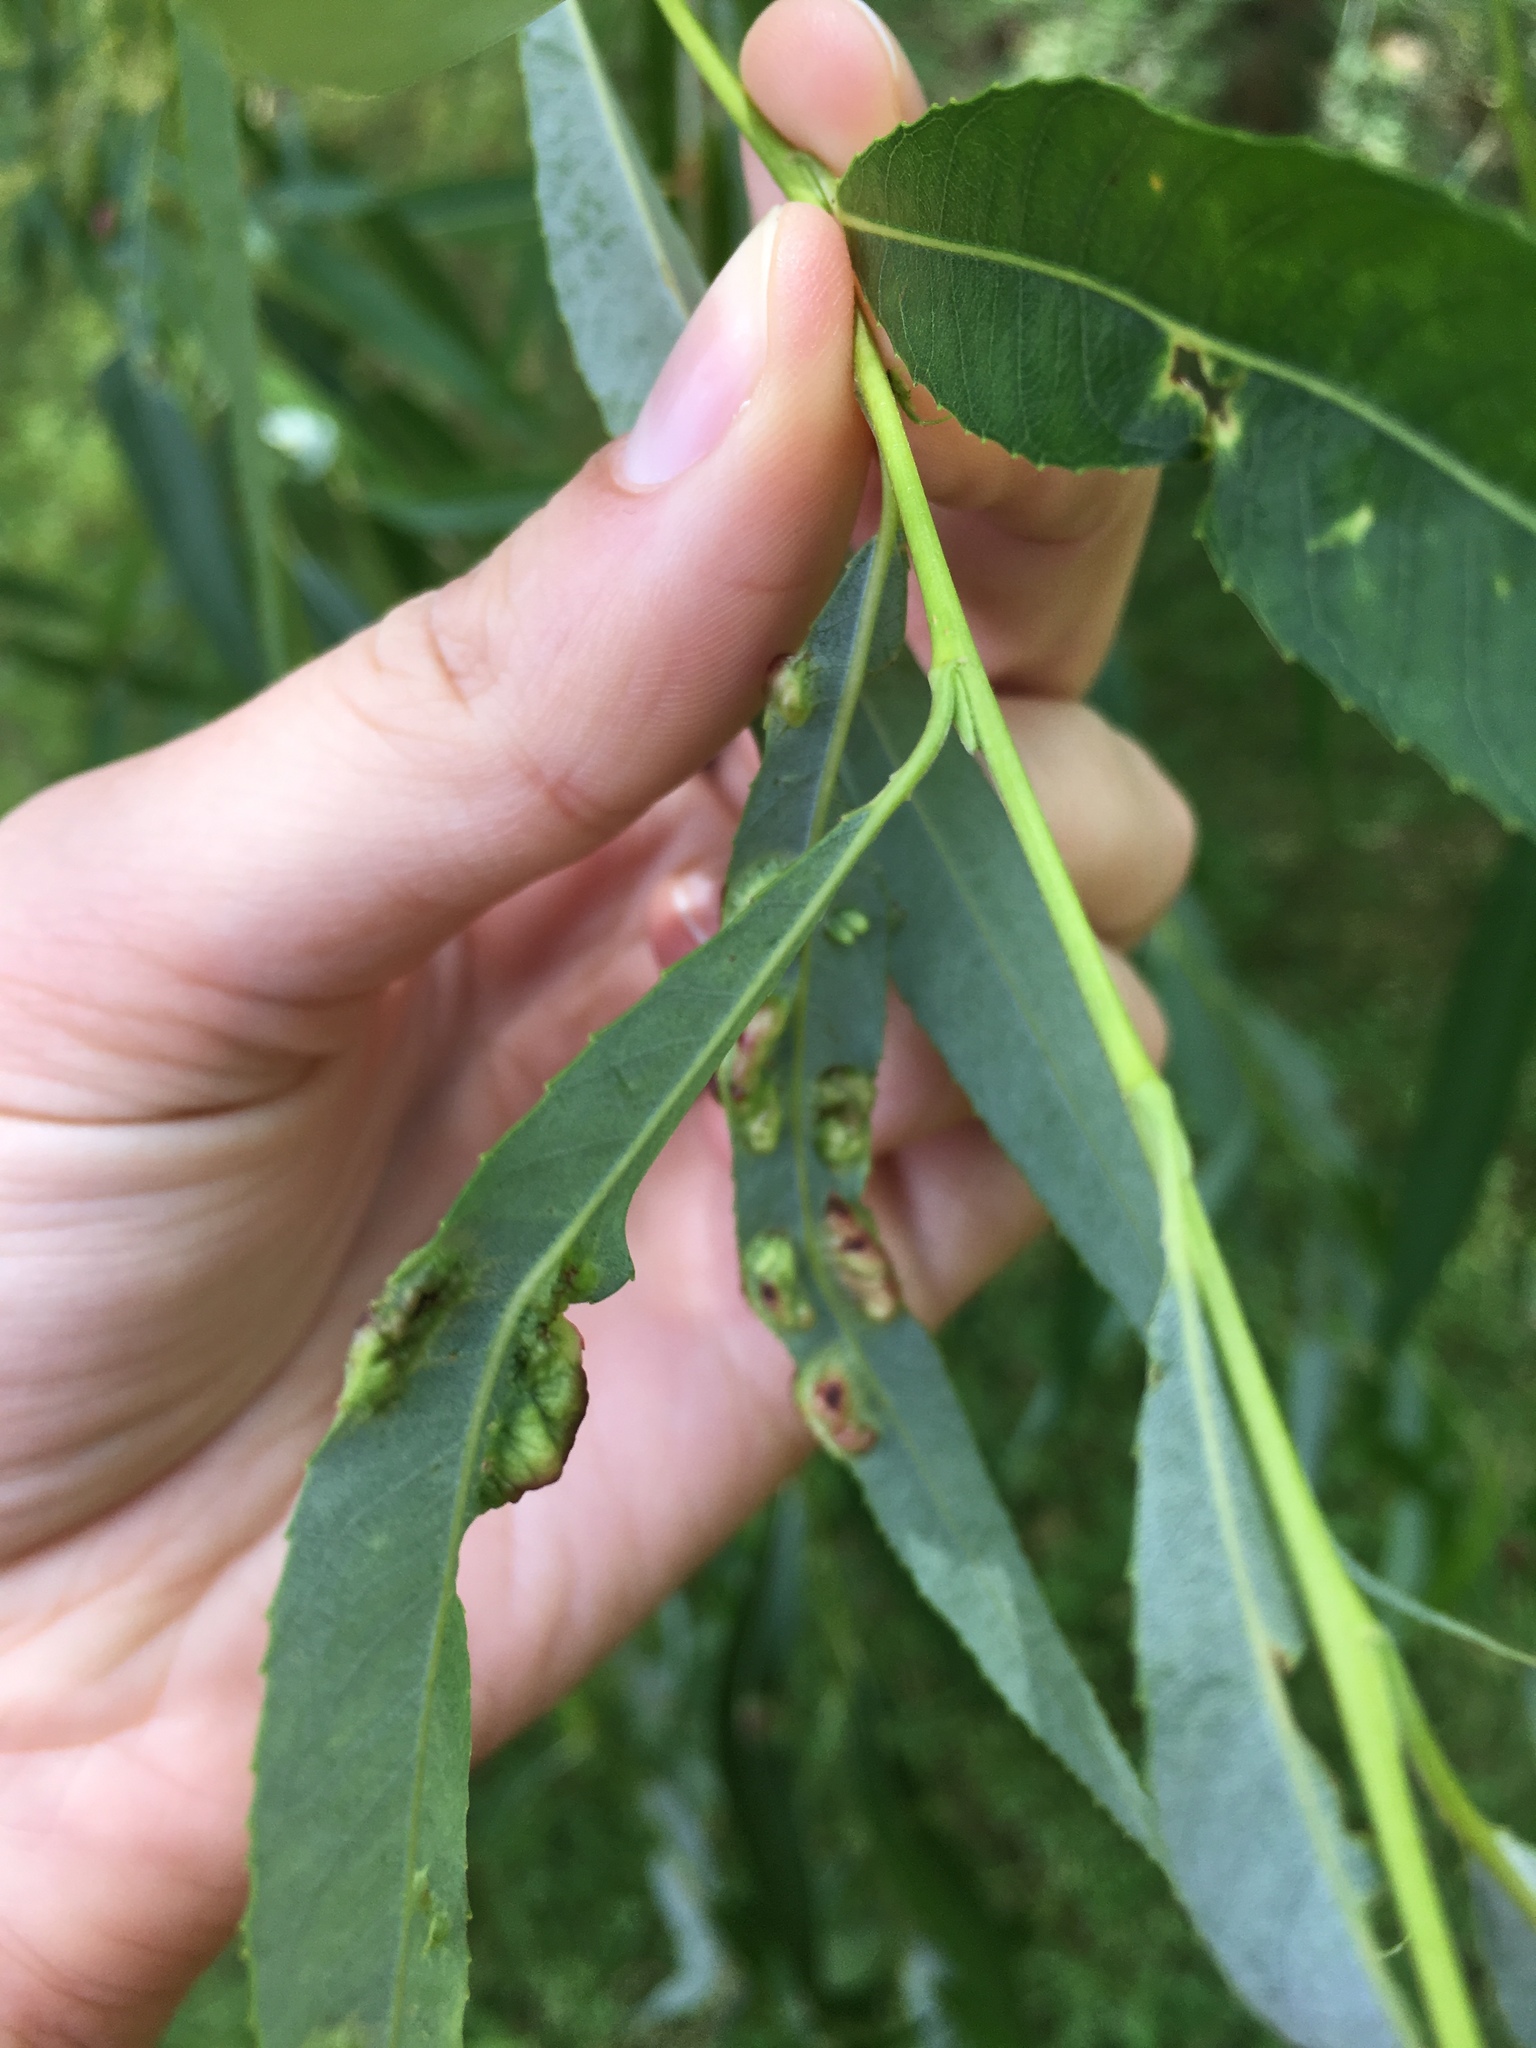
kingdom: Animalia
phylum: Arthropoda
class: Insecta
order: Hymenoptera
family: Tenthredinidae
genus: Pontania
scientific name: Pontania proxima
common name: Common sawfly
